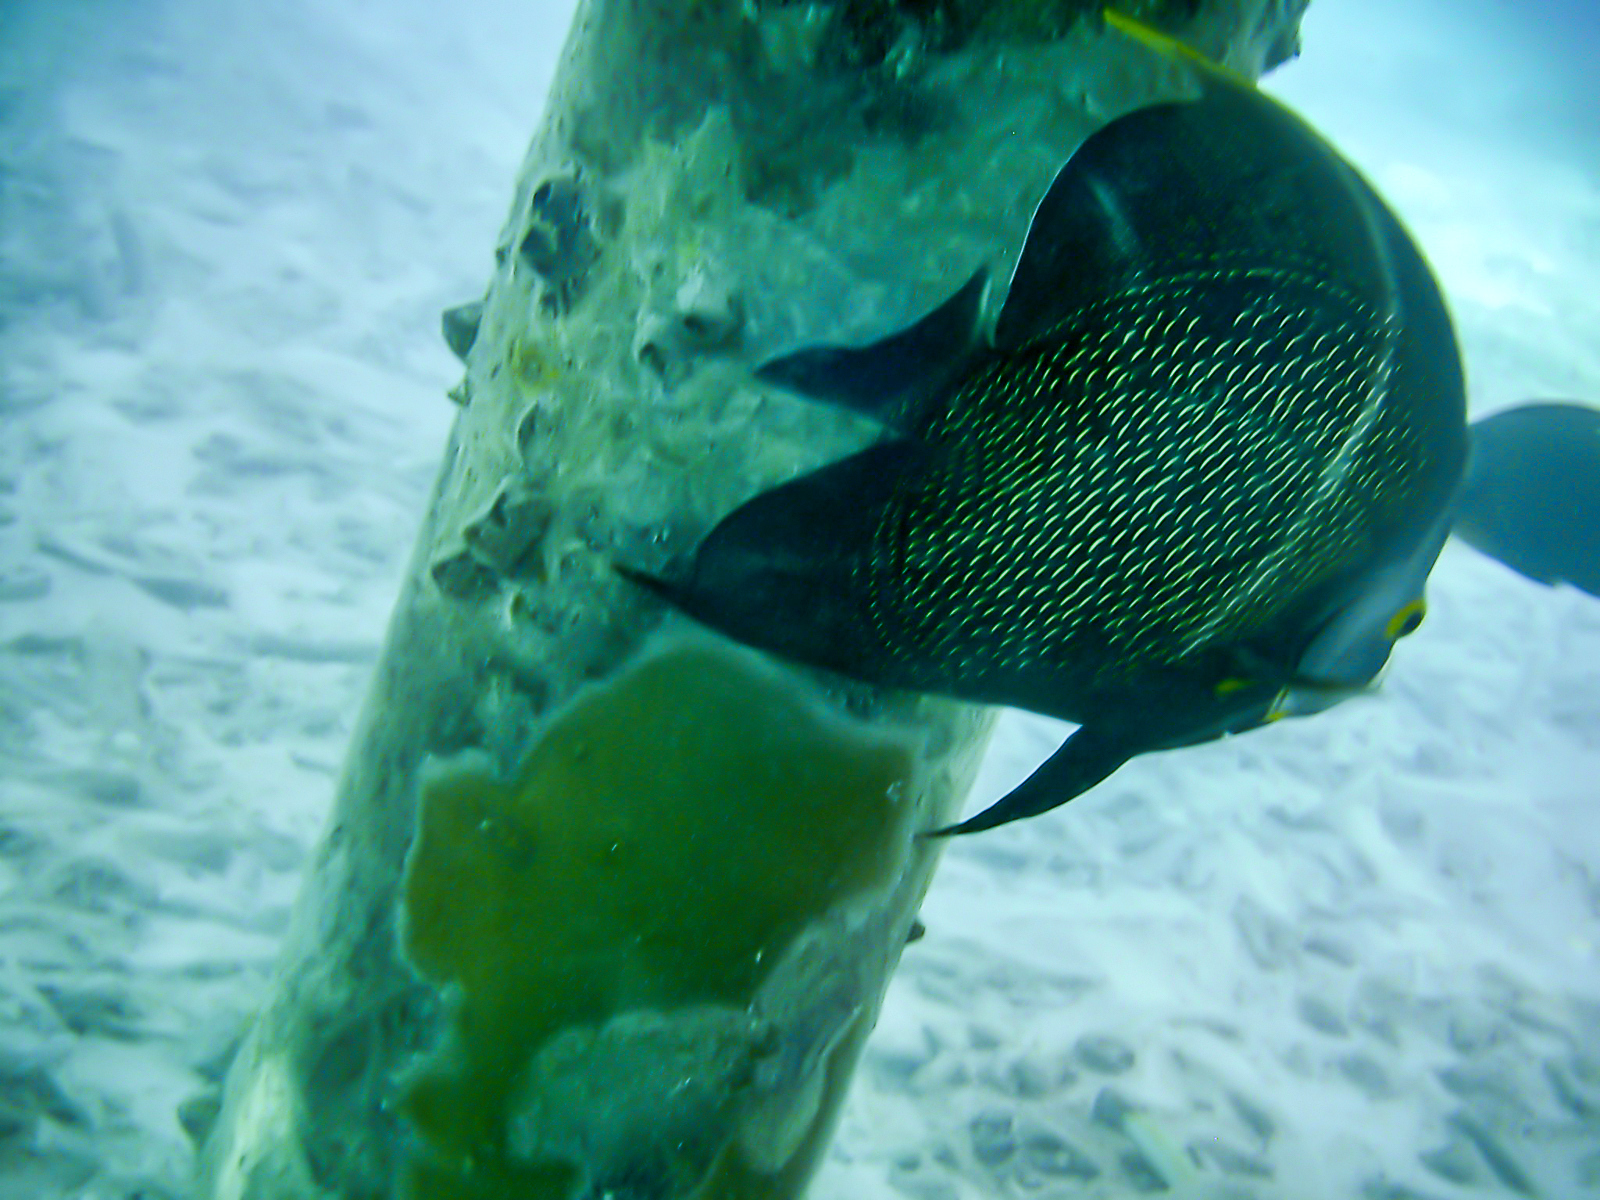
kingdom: Animalia
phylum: Chordata
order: Perciformes
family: Pomacanthidae
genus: Pomacanthus
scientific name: Pomacanthus paru
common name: French angelfish
